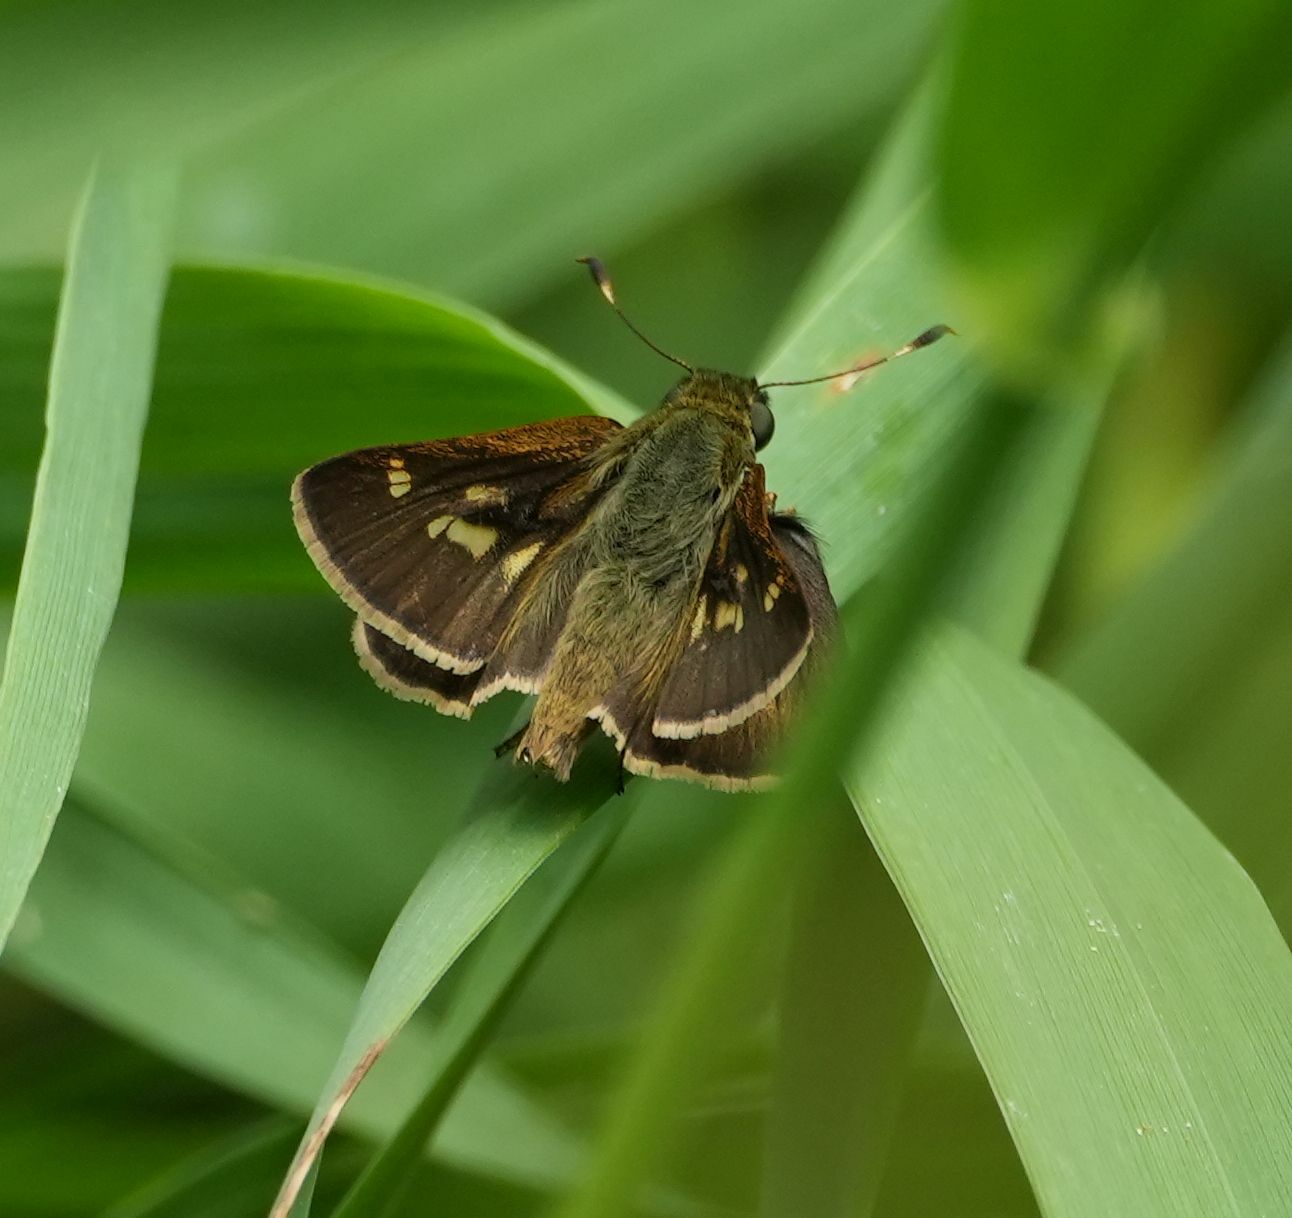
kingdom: Animalia
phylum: Arthropoda
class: Insecta
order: Lepidoptera
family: Hesperiidae
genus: Vernia
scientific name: Vernia verna
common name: Little glassywing
